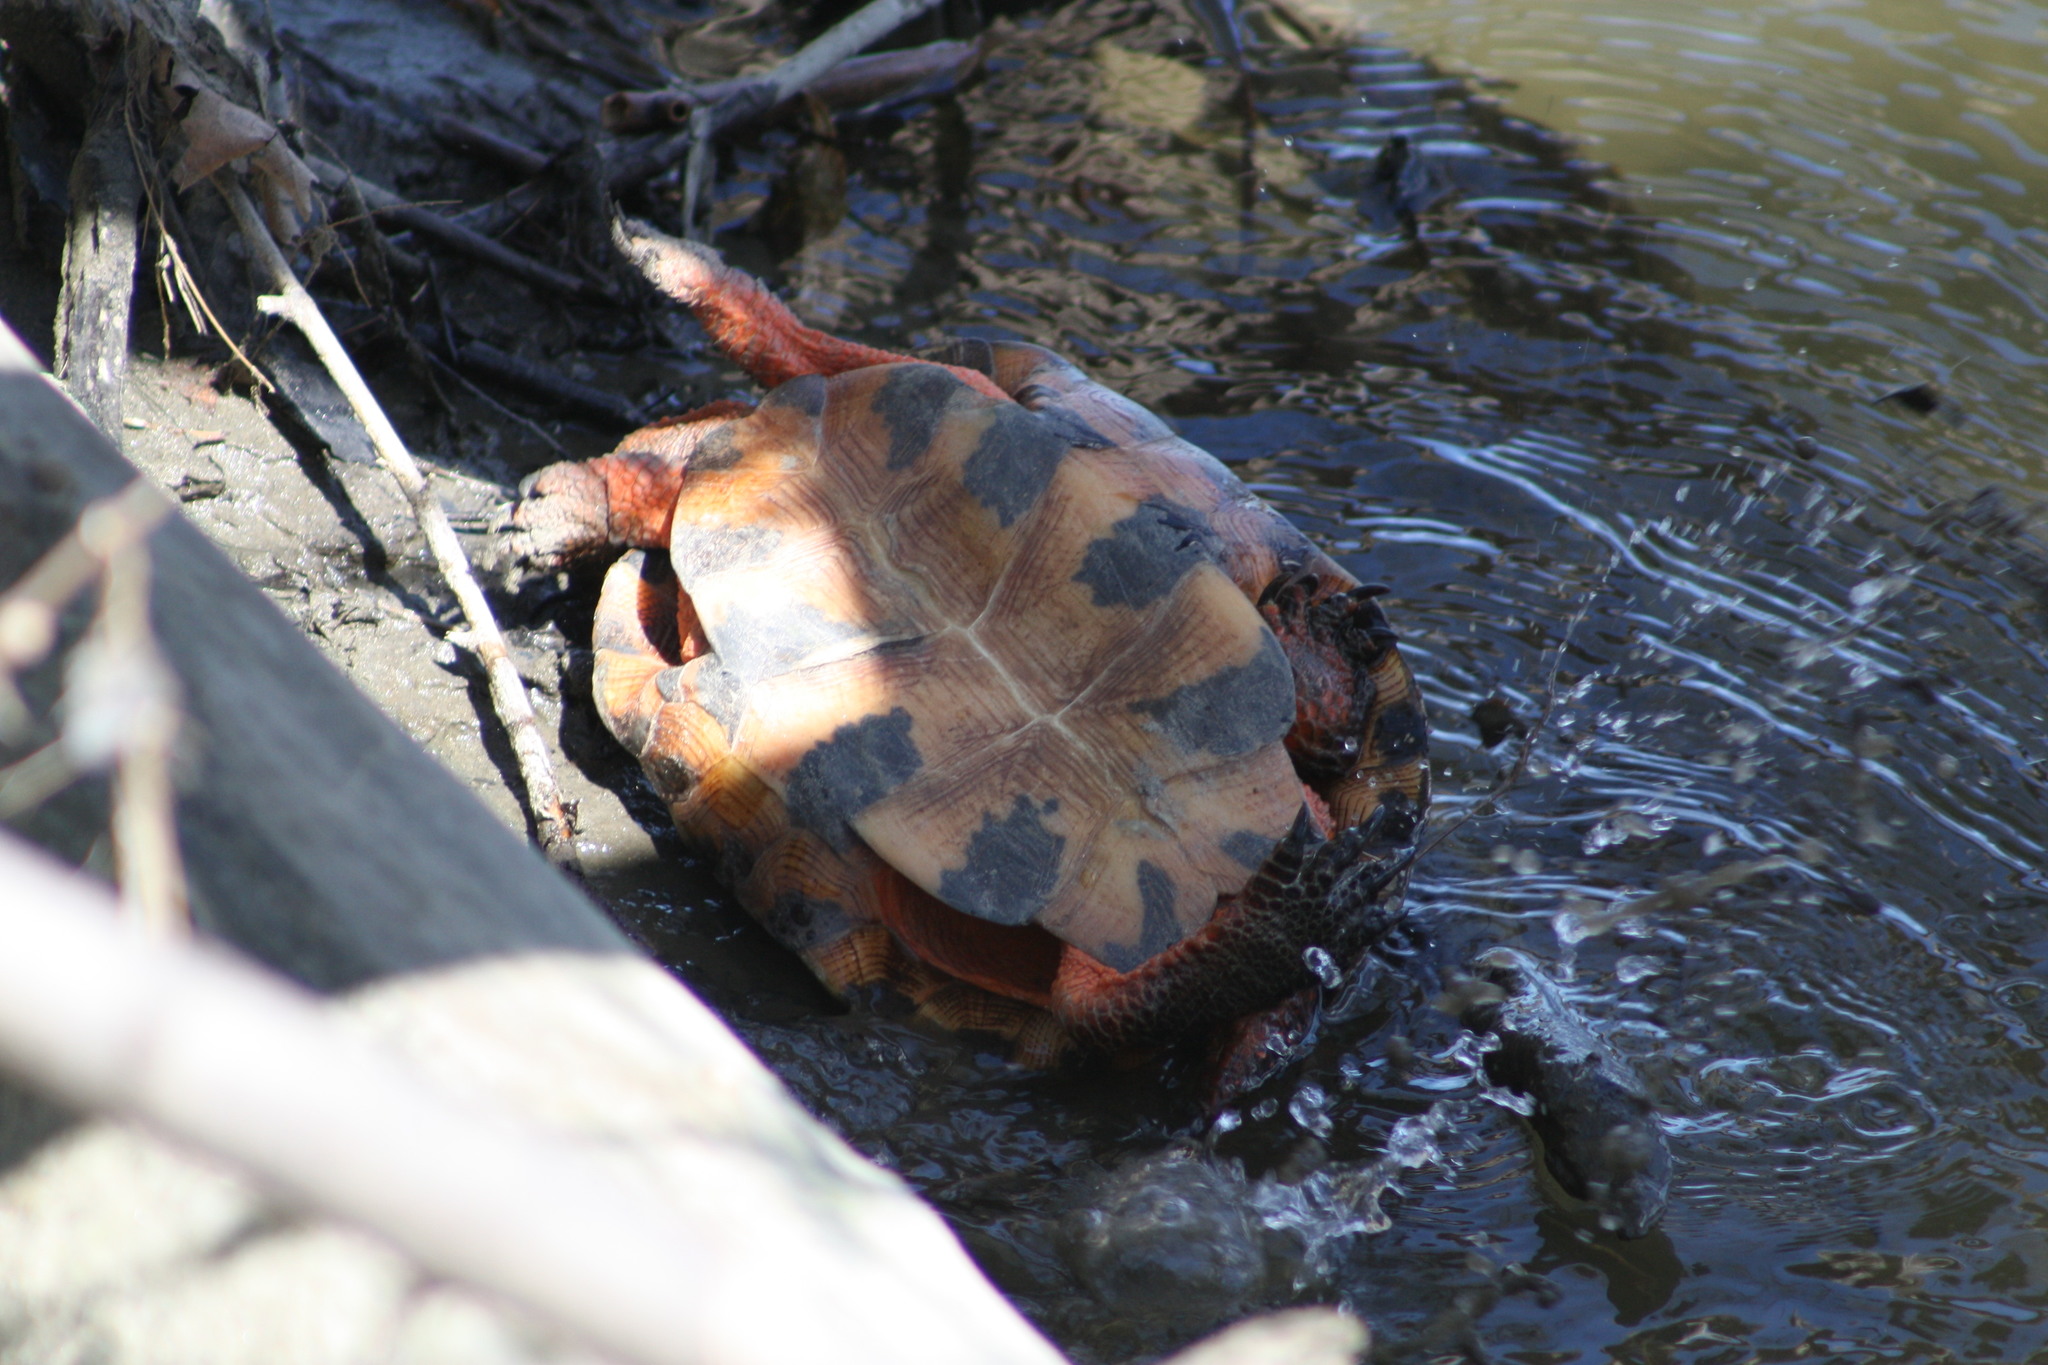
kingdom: Animalia
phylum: Chordata
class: Testudines
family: Emydidae
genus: Glyptemys
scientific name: Glyptemys insculpta
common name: Wood turtle
